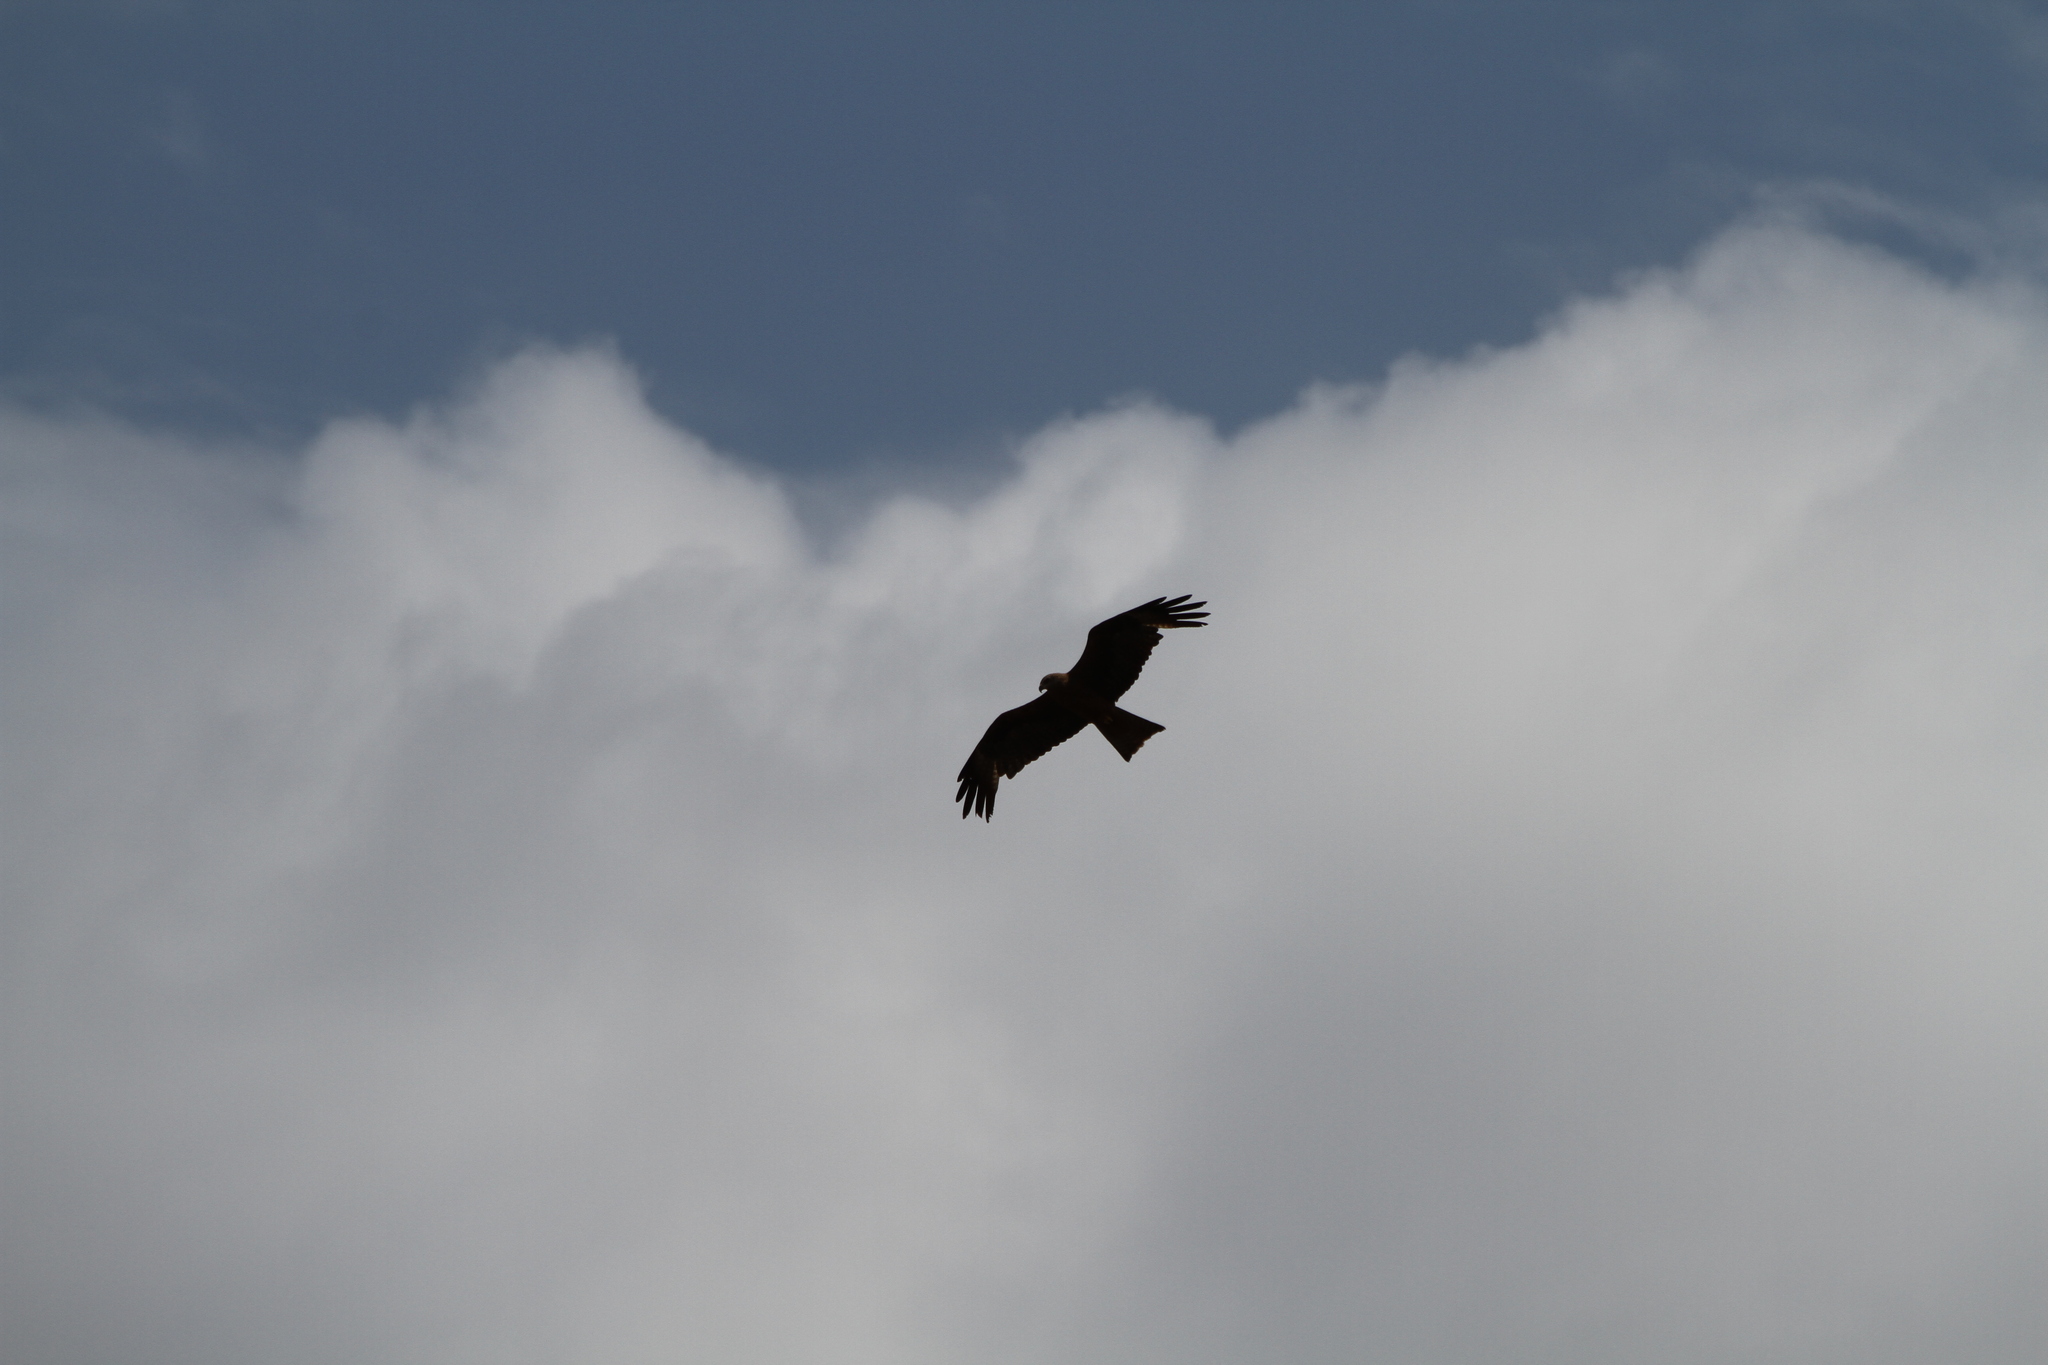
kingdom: Animalia
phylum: Chordata
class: Aves
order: Accipitriformes
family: Accipitridae
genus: Milvus
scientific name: Milvus migrans
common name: Black kite
